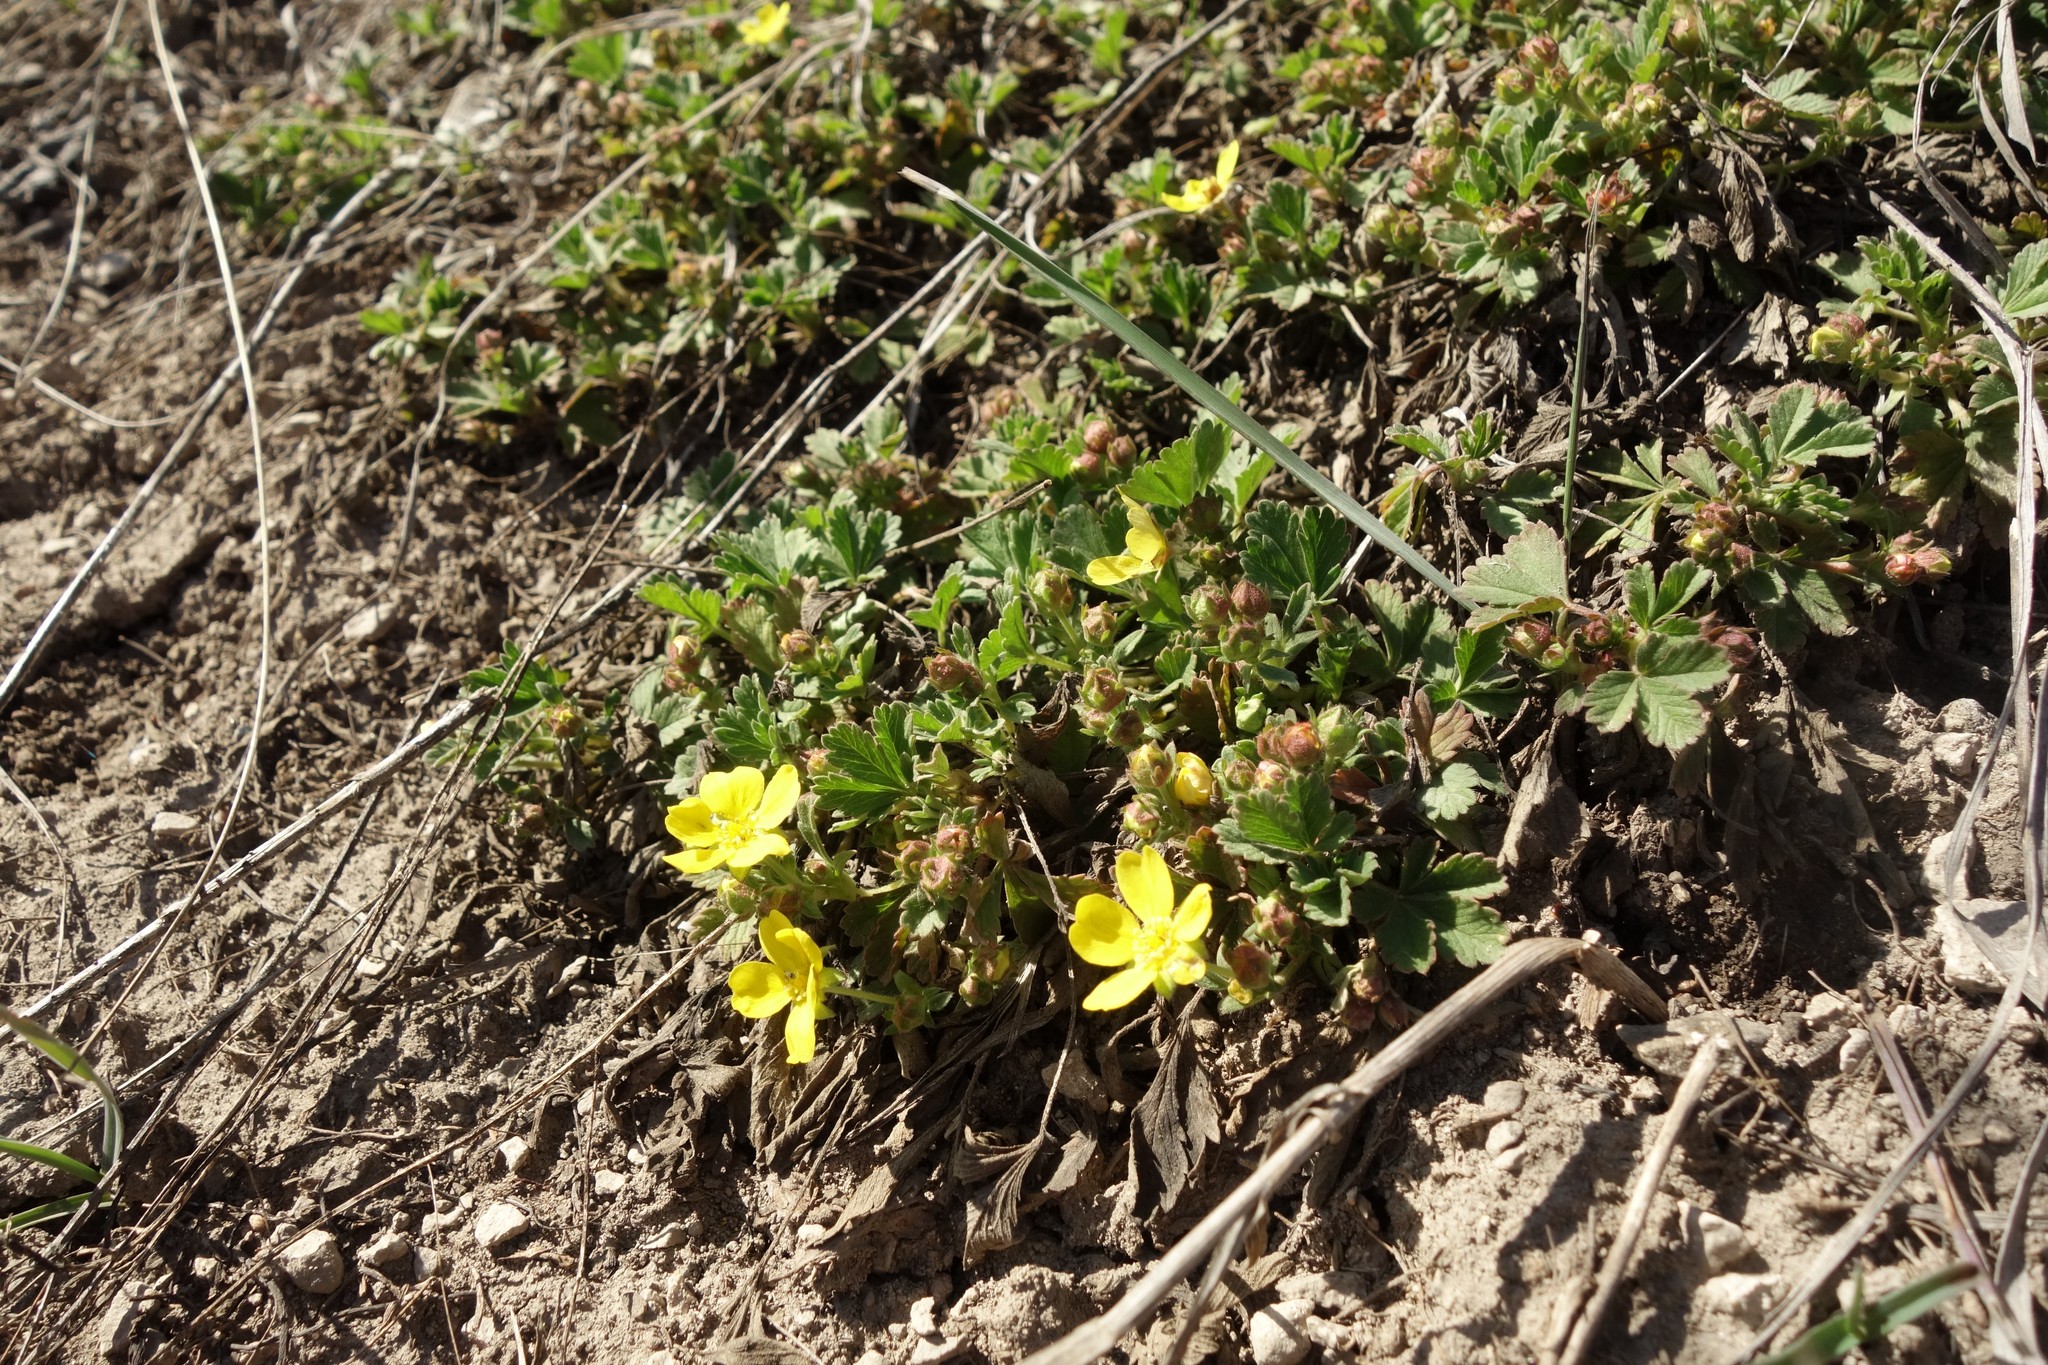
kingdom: Plantae
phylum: Tracheophyta
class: Magnoliopsida
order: Rosales
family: Rosaceae
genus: Potentilla
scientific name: Potentilla incana
